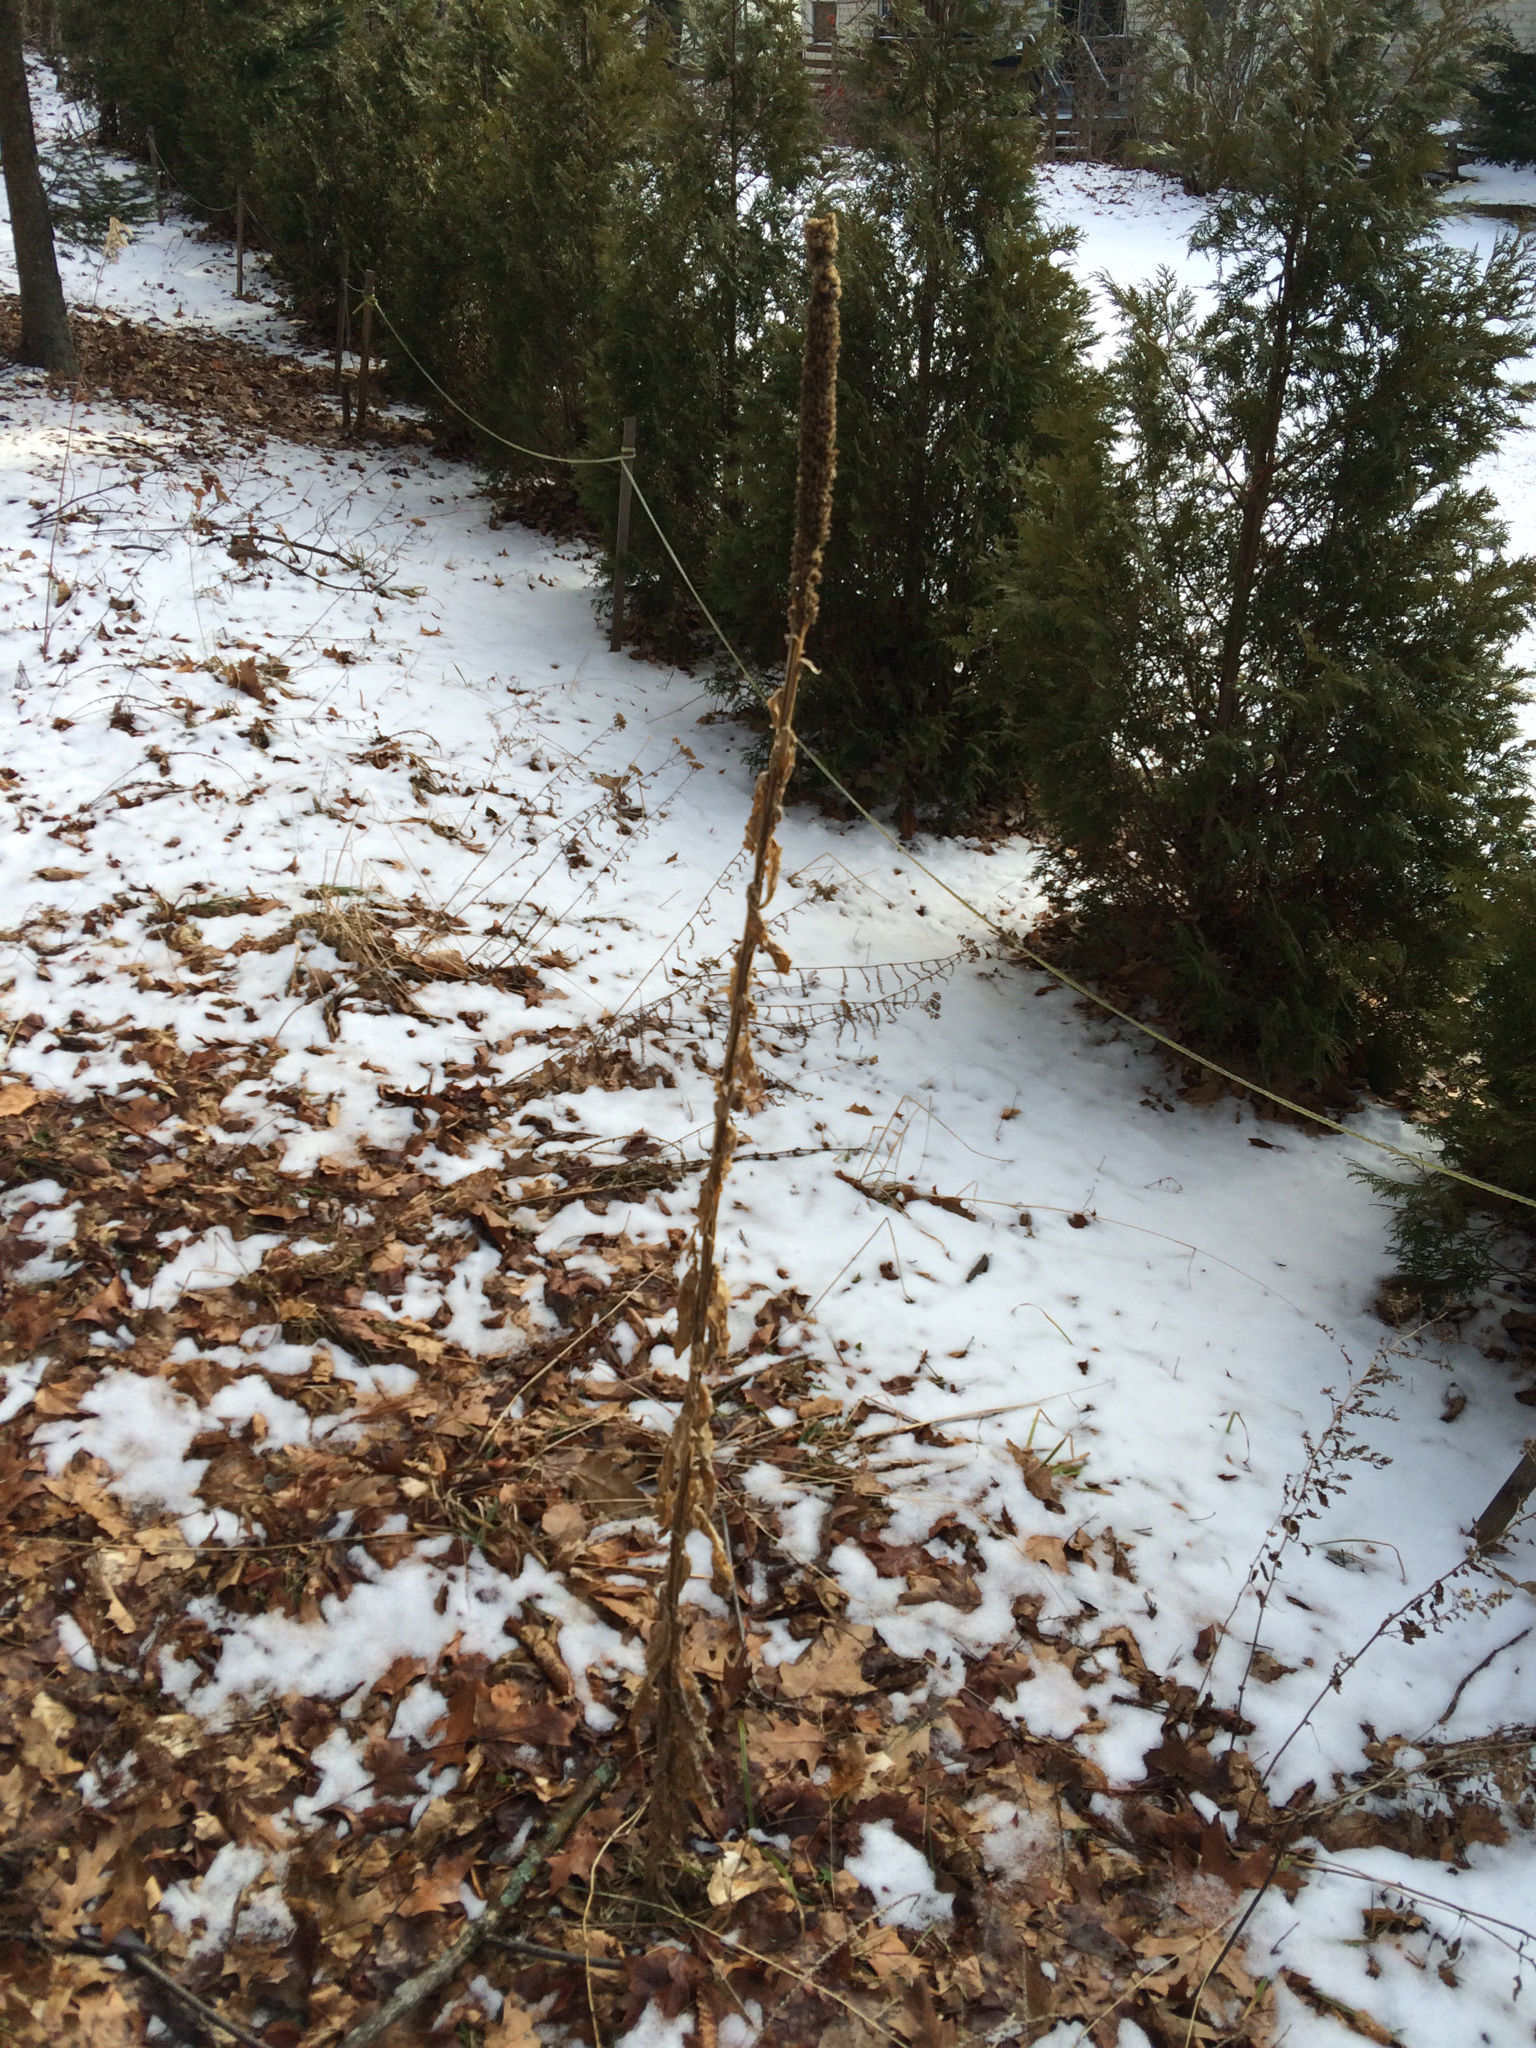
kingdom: Plantae
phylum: Tracheophyta
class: Magnoliopsida
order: Lamiales
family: Scrophulariaceae
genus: Verbascum
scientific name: Verbascum thapsus
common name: Common mullein
